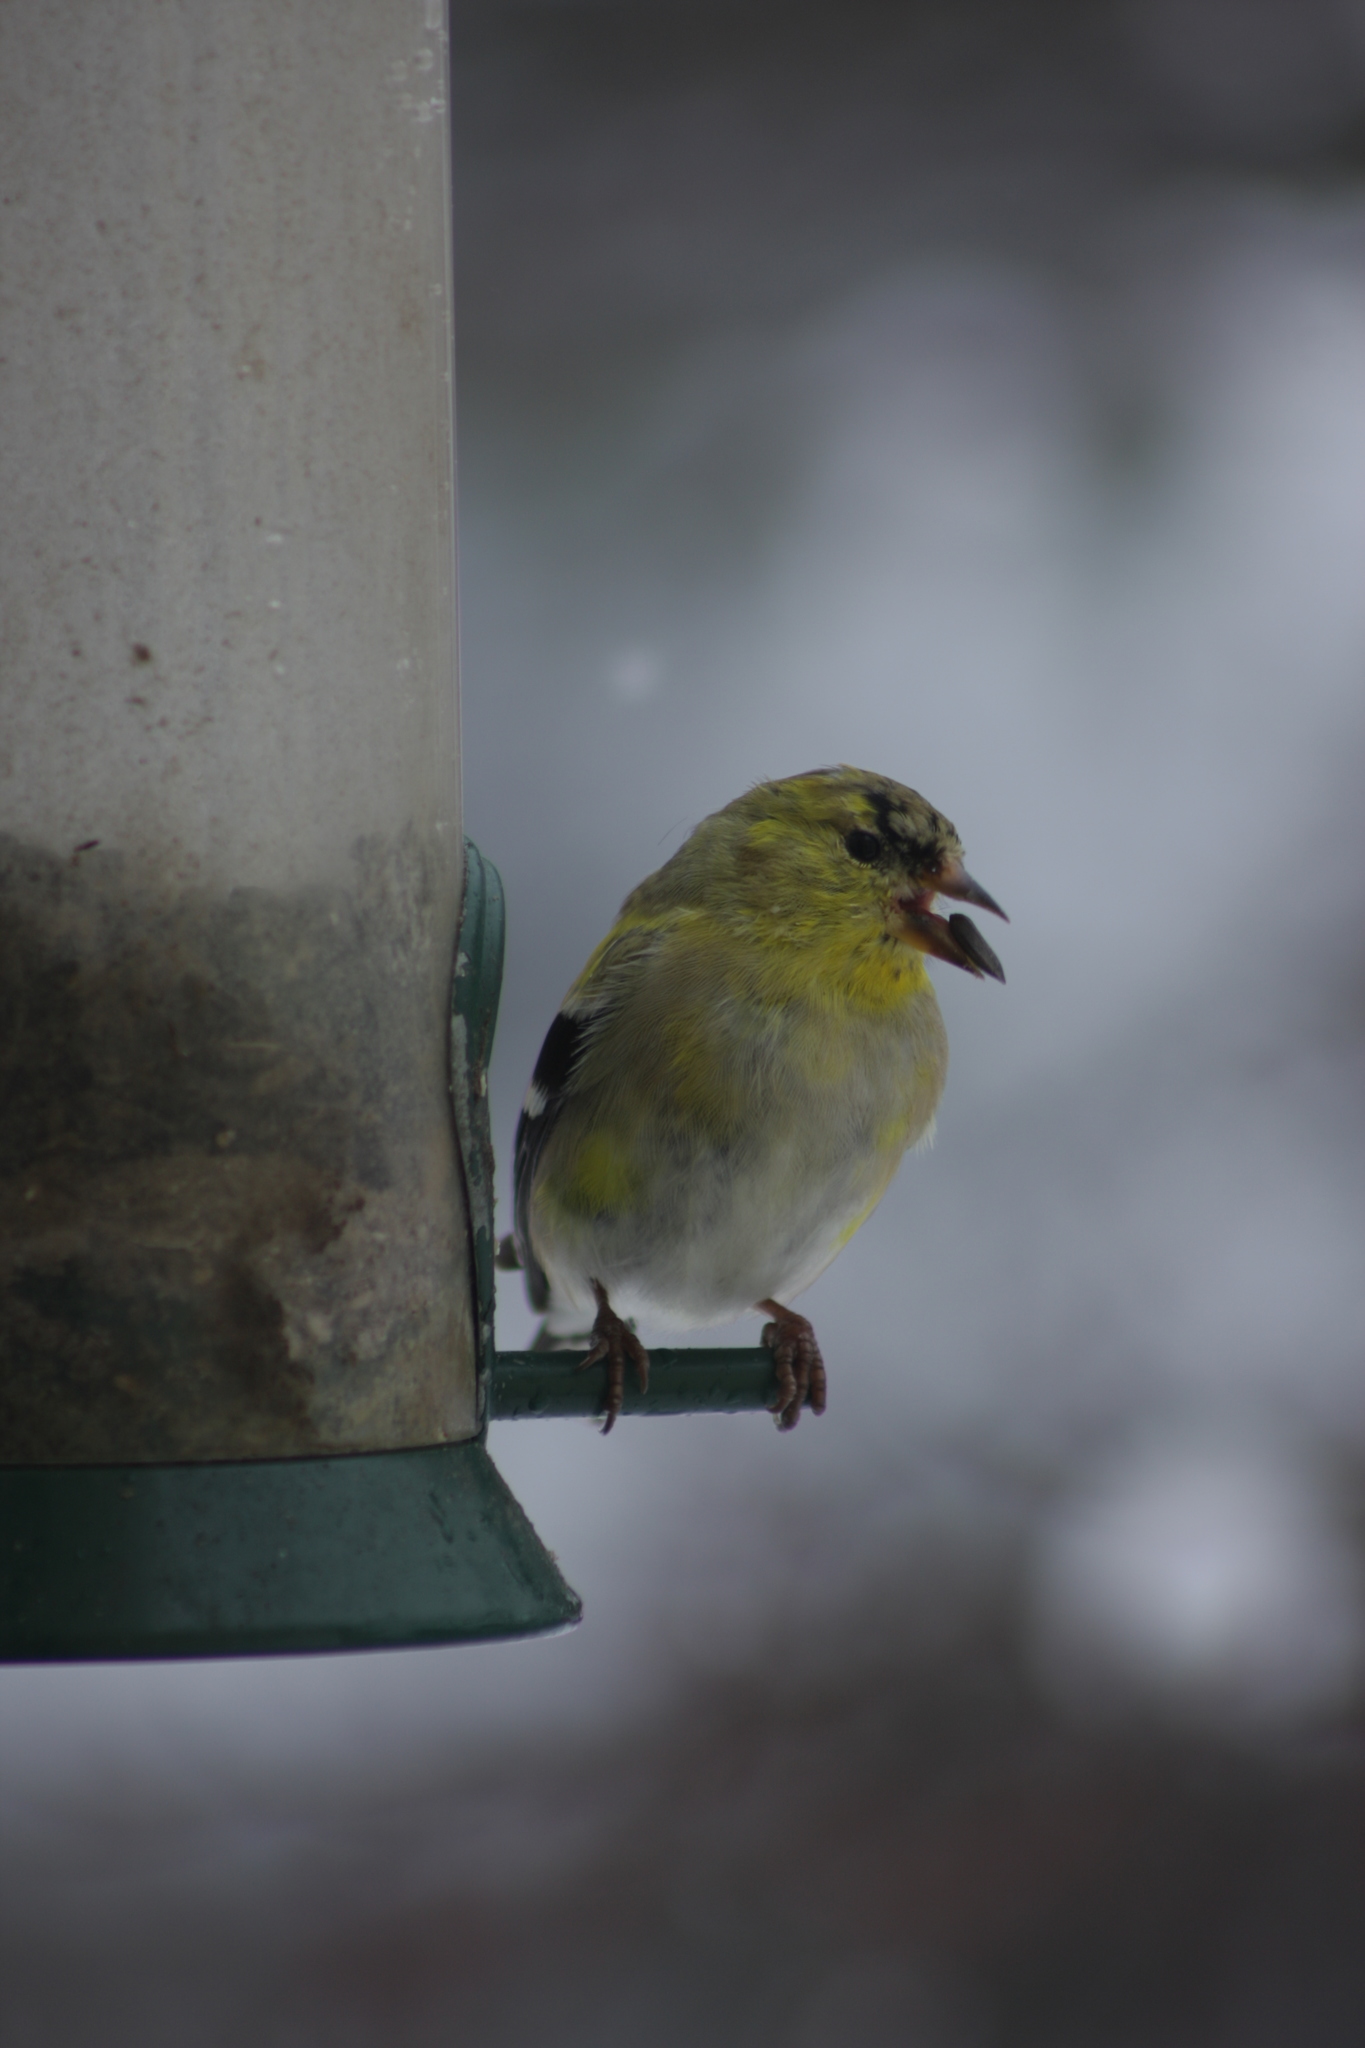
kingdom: Animalia
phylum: Chordata
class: Aves
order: Passeriformes
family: Fringillidae
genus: Spinus
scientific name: Spinus tristis
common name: American goldfinch
